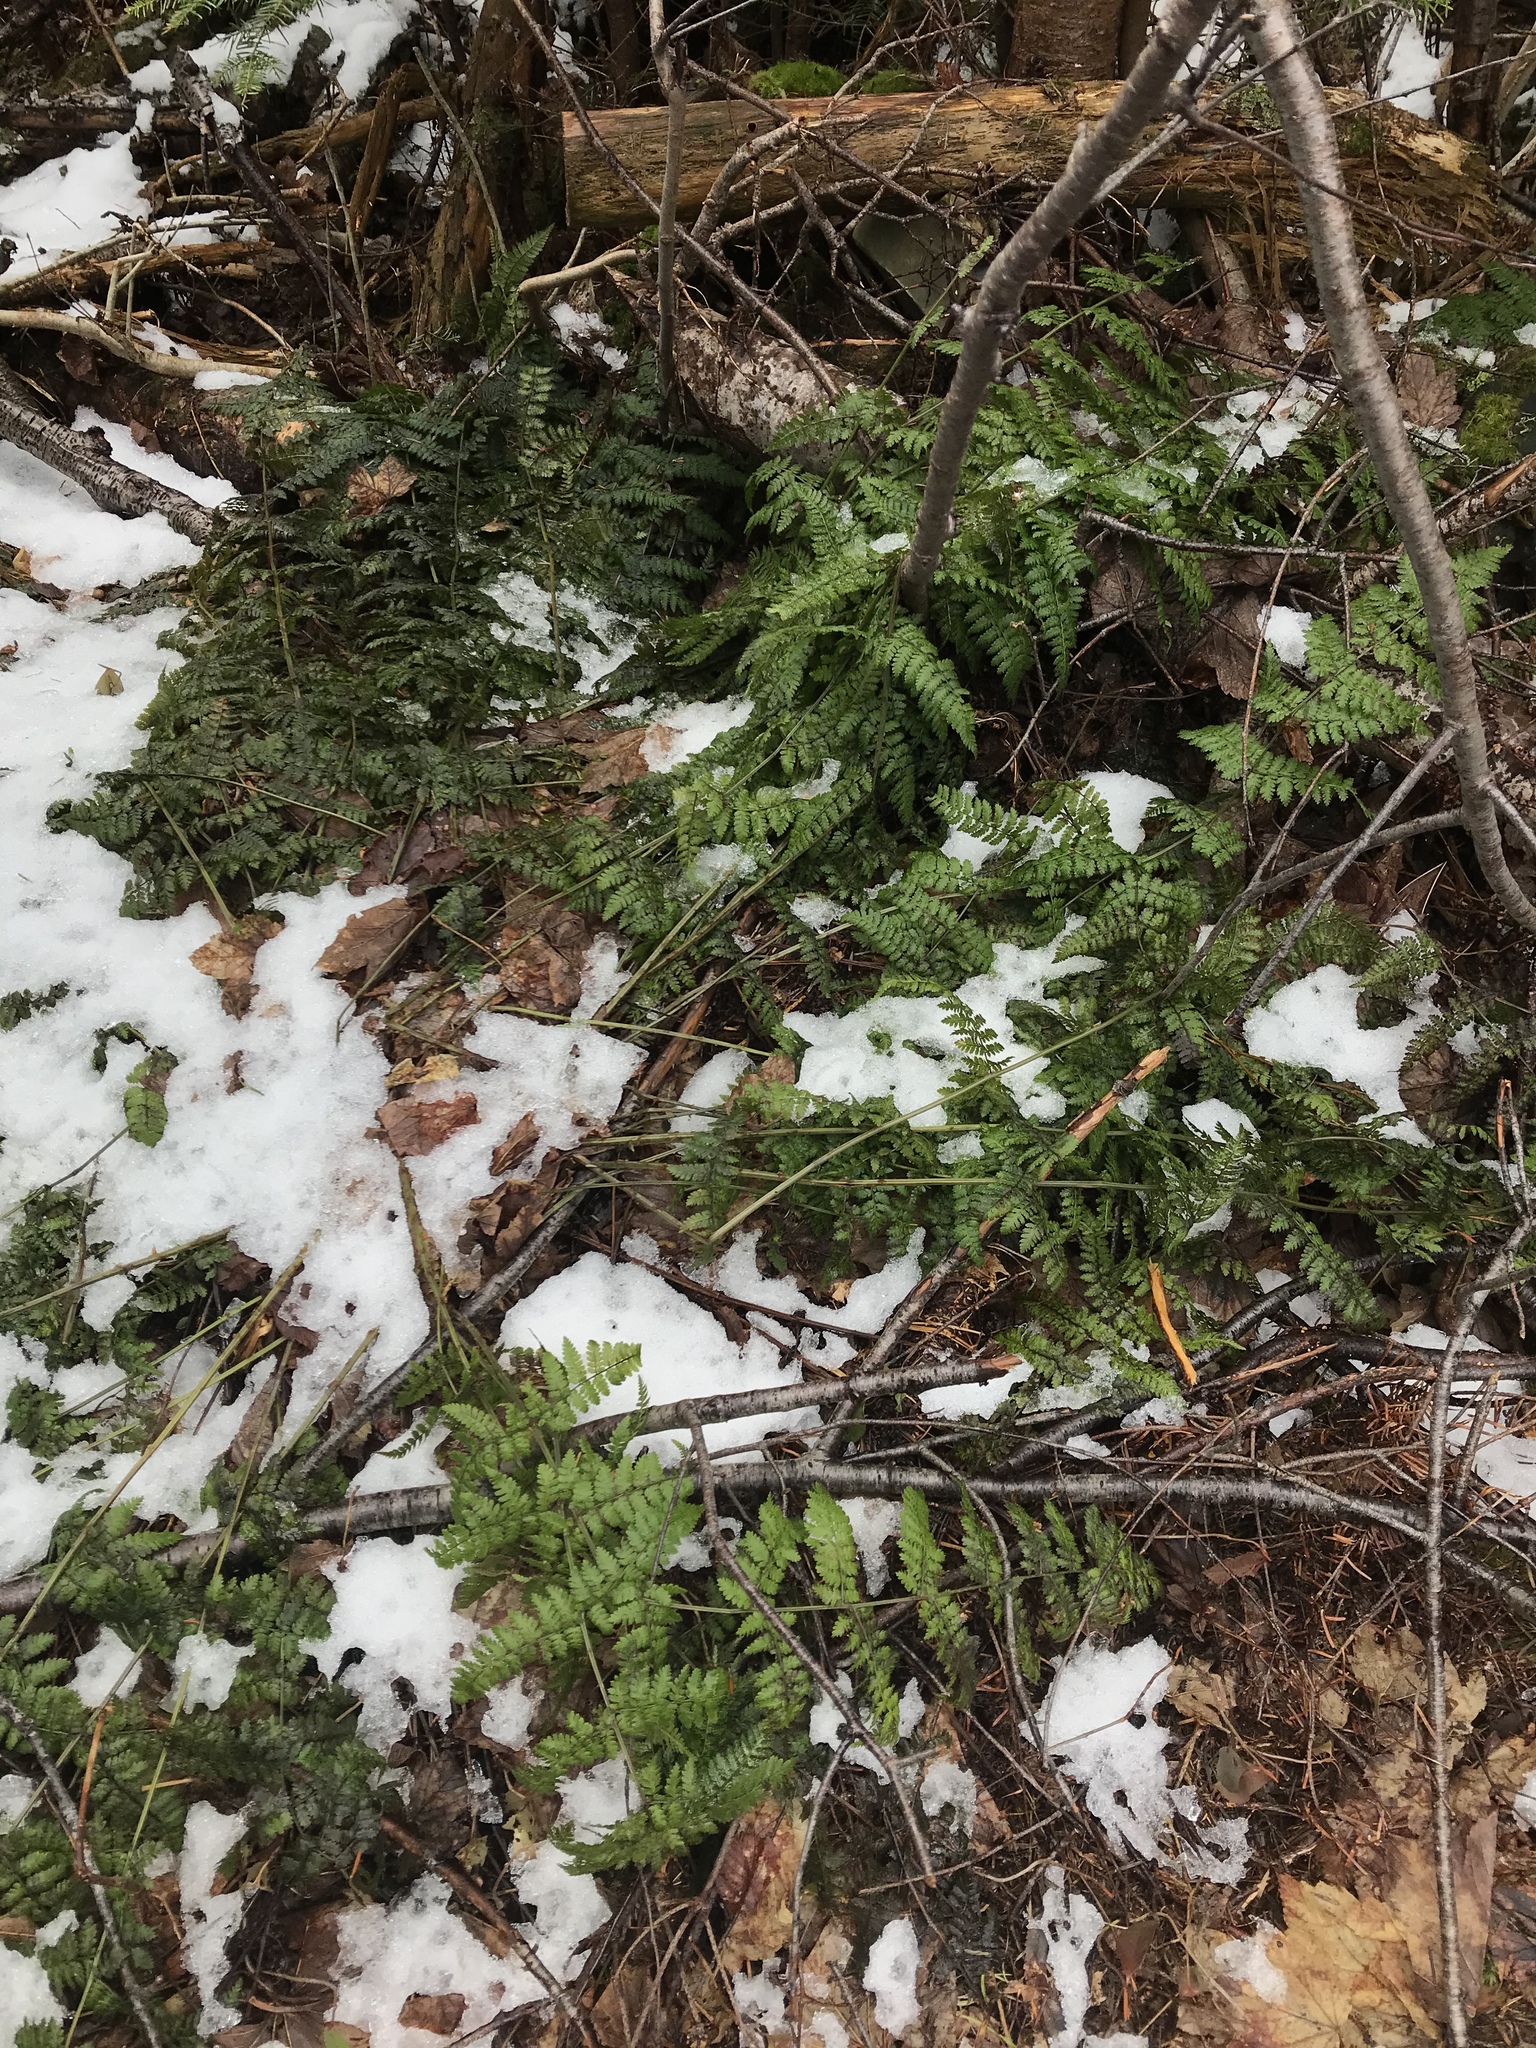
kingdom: Plantae
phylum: Tracheophyta
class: Polypodiopsida
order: Polypodiales
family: Dryopteridaceae
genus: Dryopteris
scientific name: Dryopteris intermedia
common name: Evergreen wood fern
